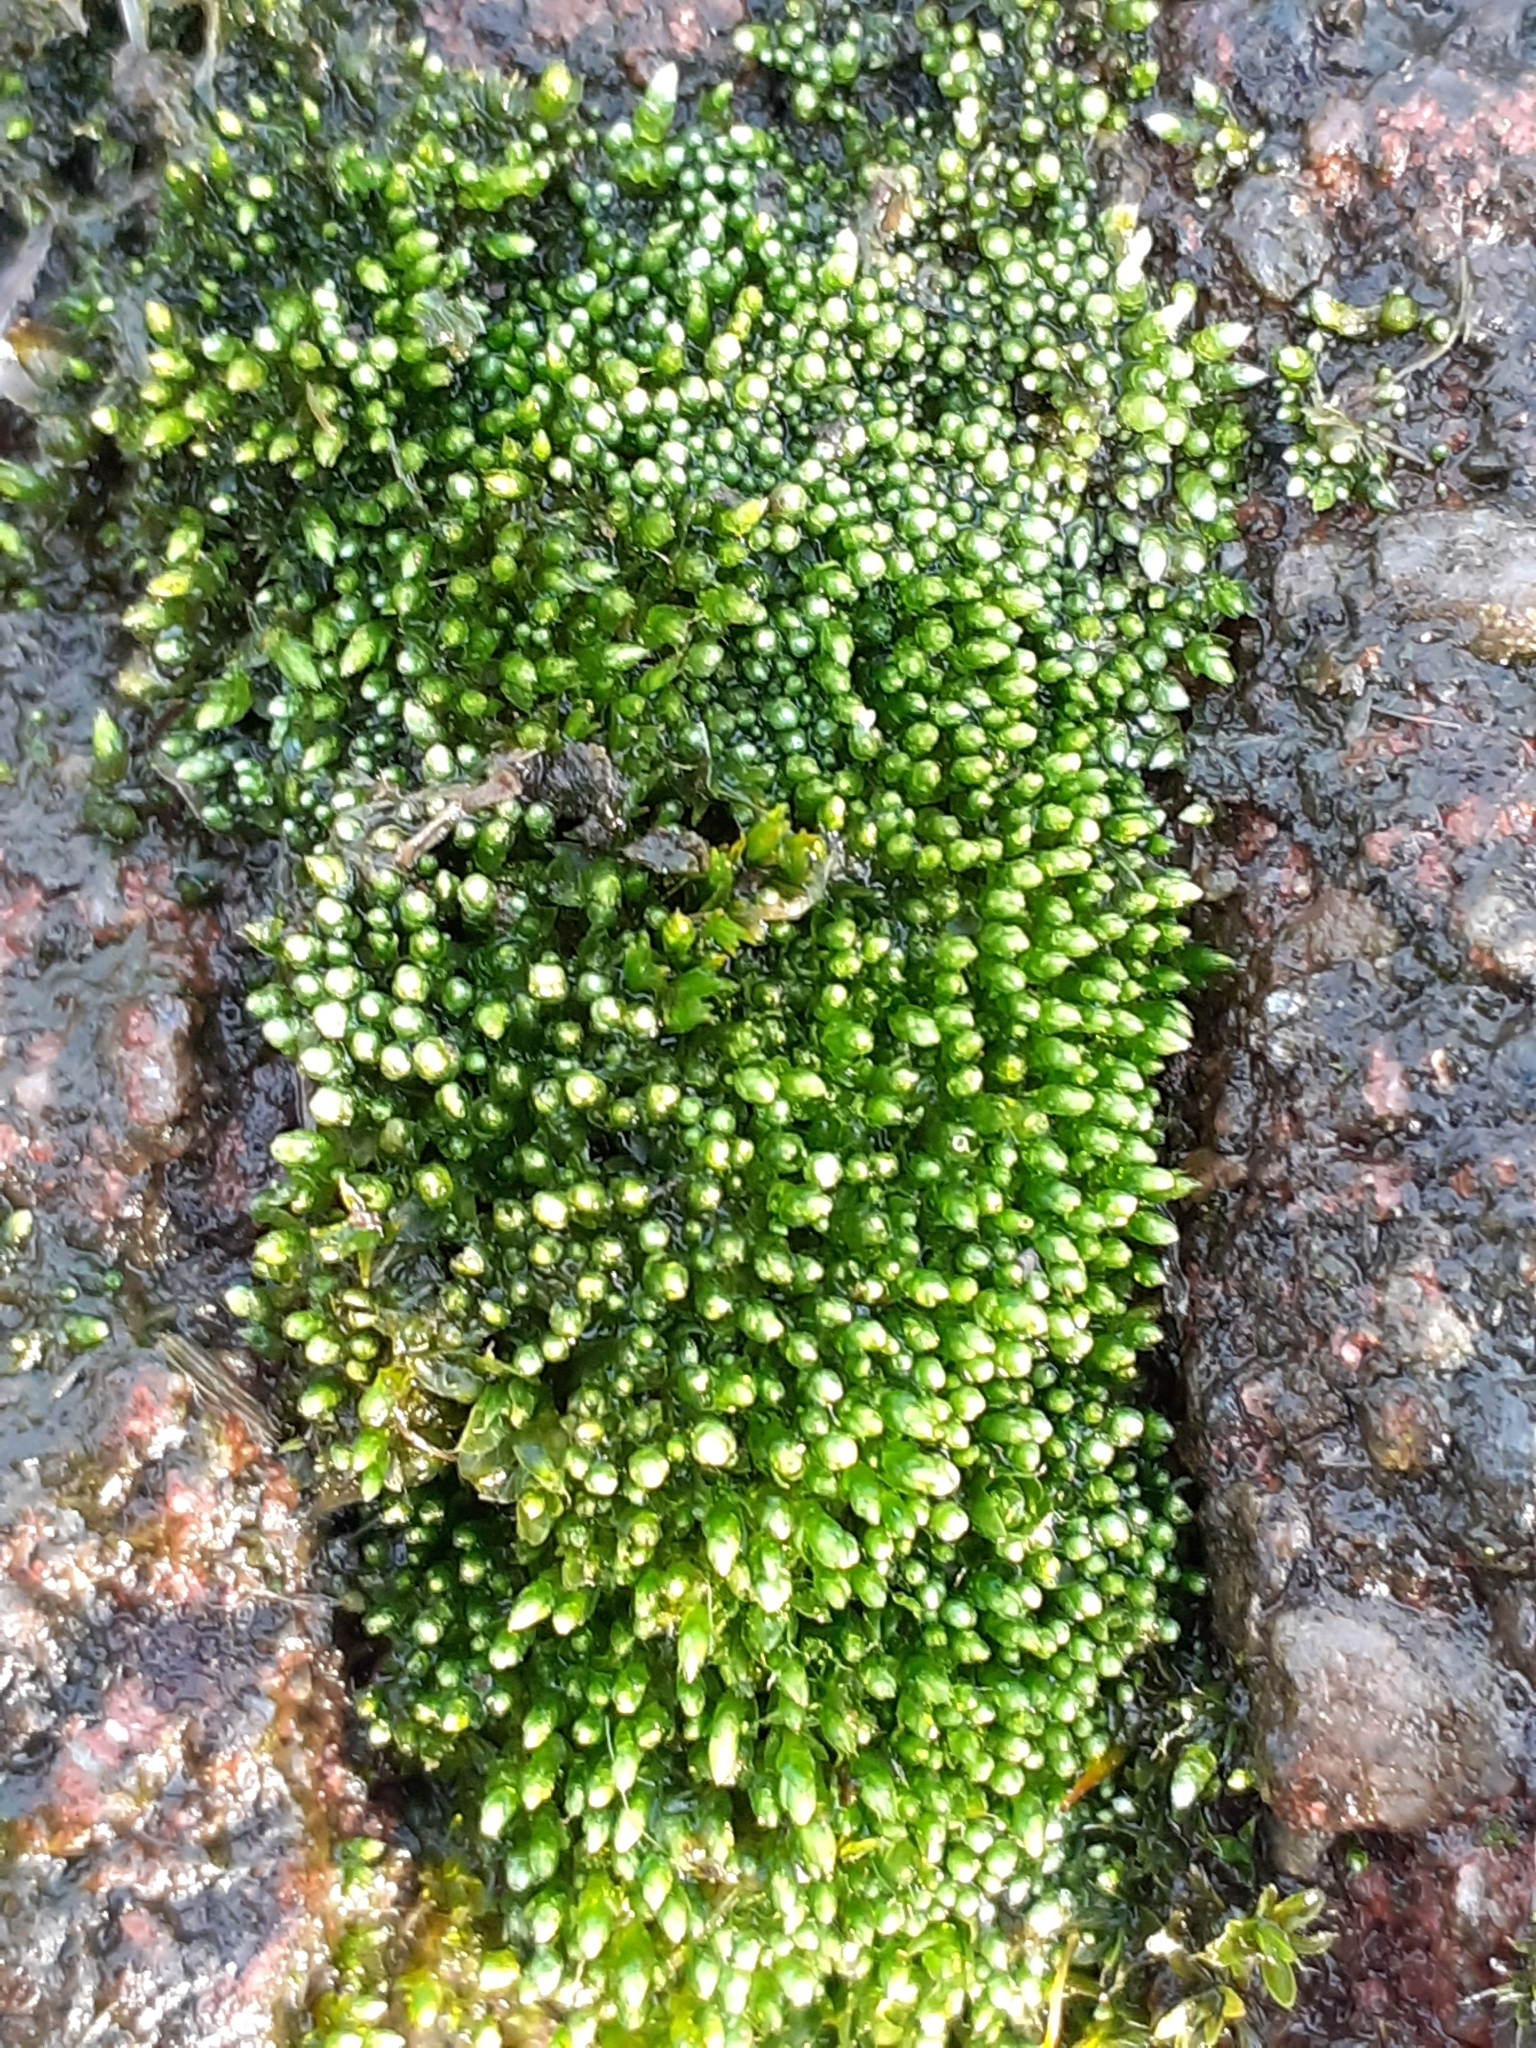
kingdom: Plantae
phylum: Bryophyta
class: Bryopsida
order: Bryales
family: Bryaceae
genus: Bryum
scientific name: Bryum argenteum
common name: Silver-moss
